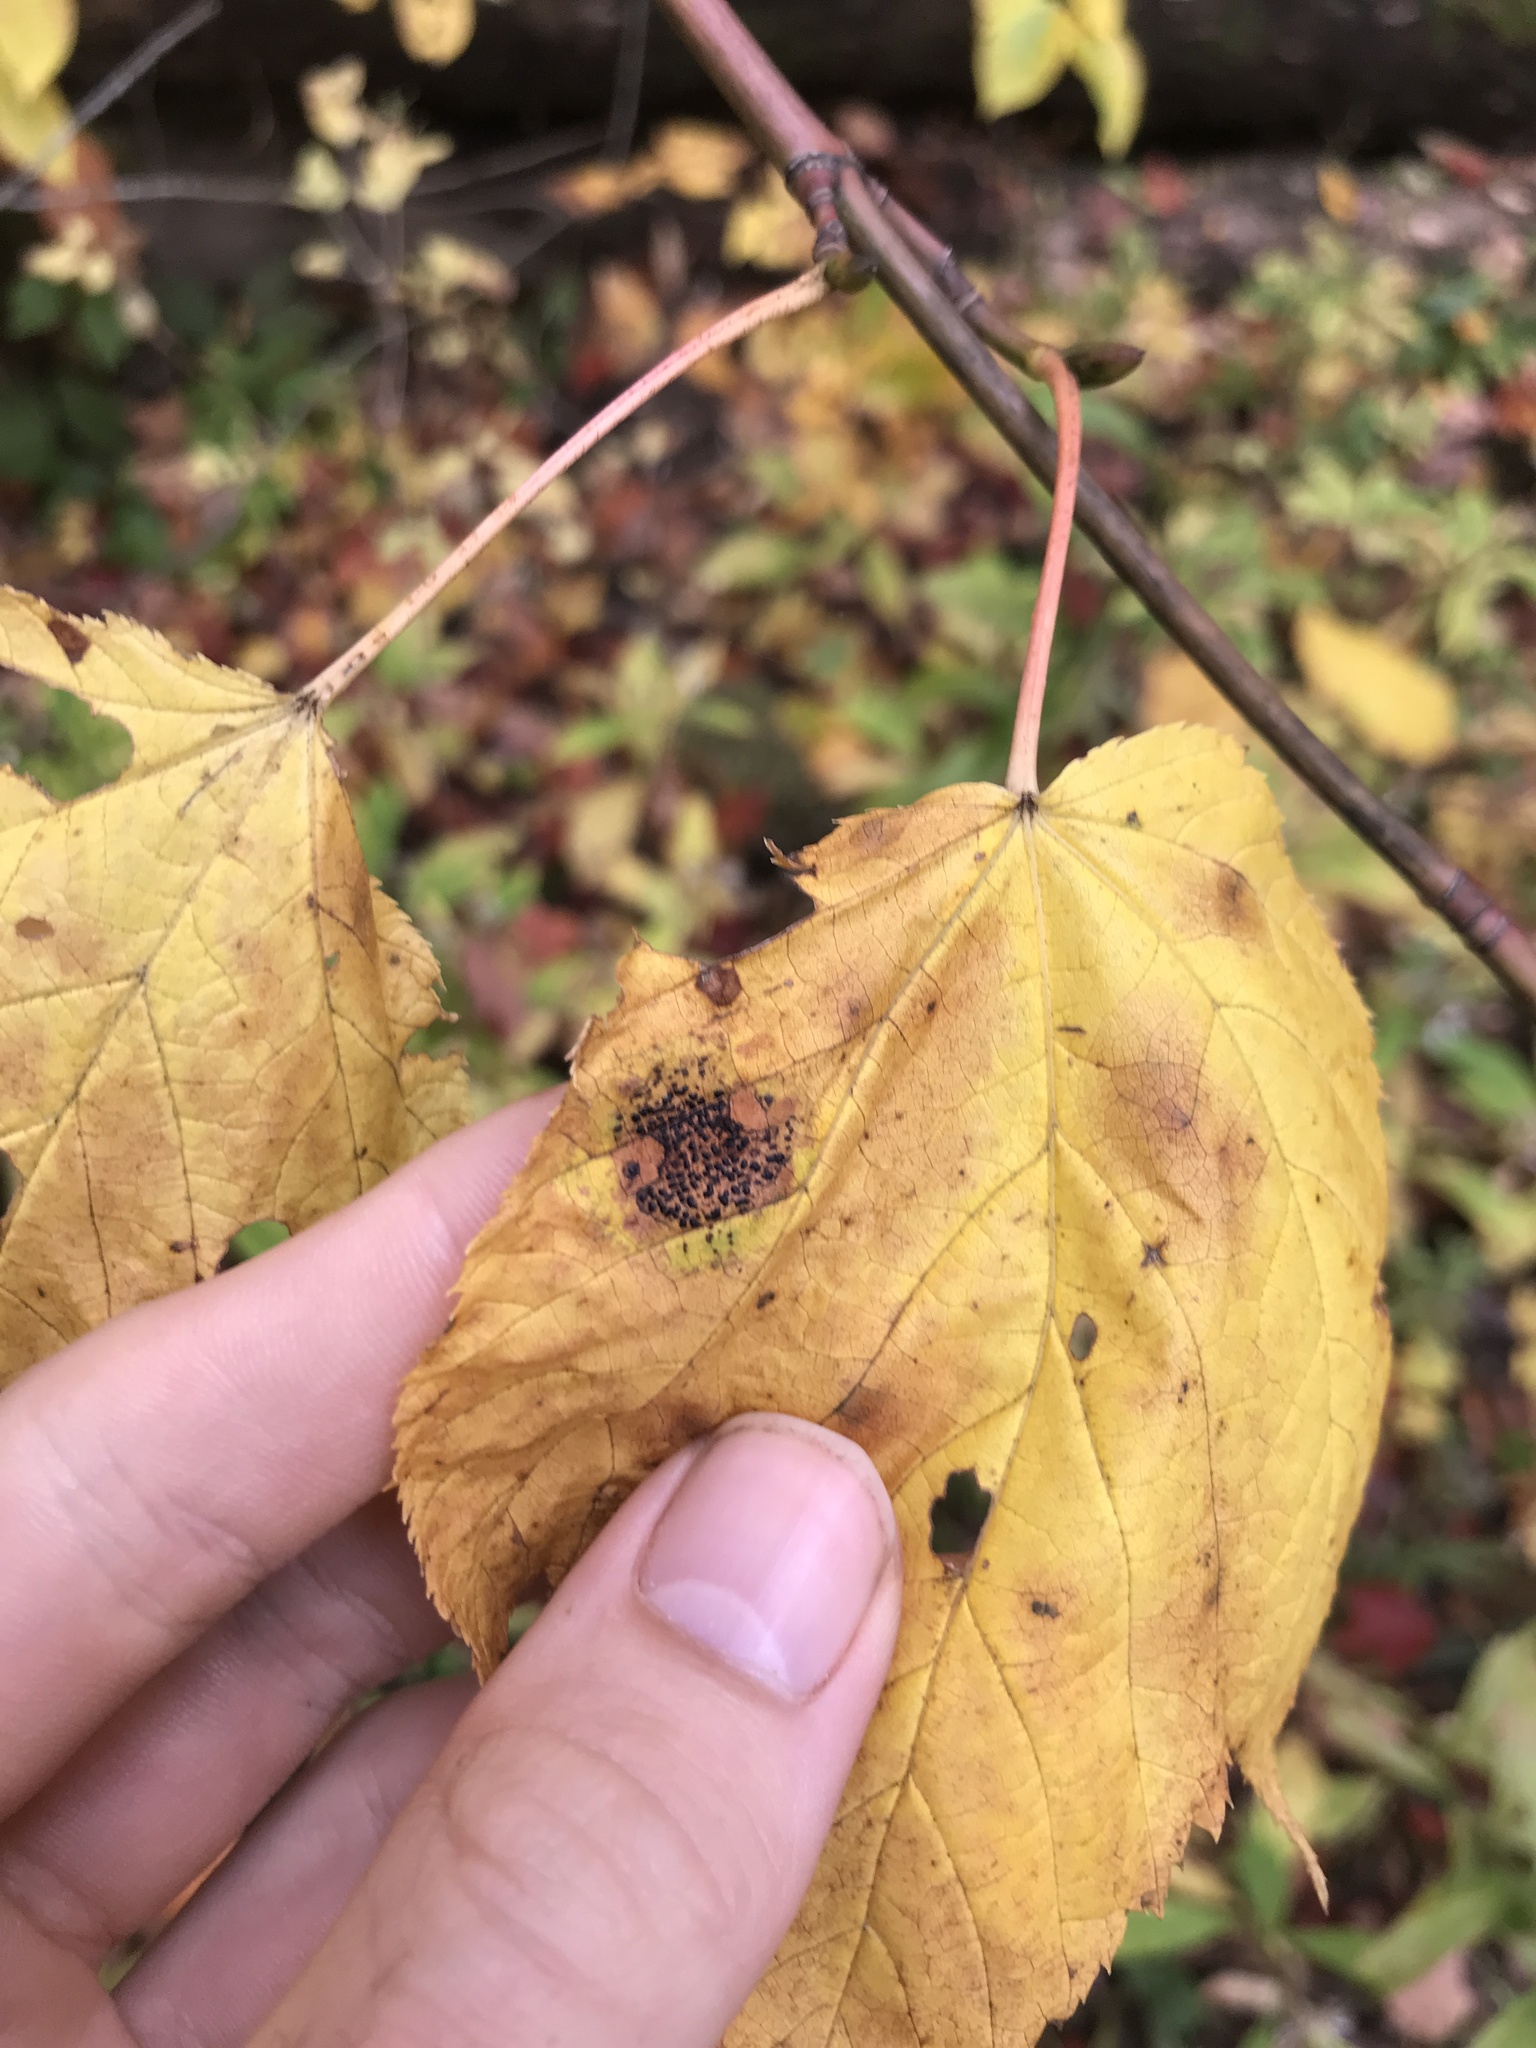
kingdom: Fungi
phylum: Ascomycota
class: Leotiomycetes
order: Rhytismatales
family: Rhytismataceae
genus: Rhytisma
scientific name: Rhytisma punctatum
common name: Speckled tar spot
